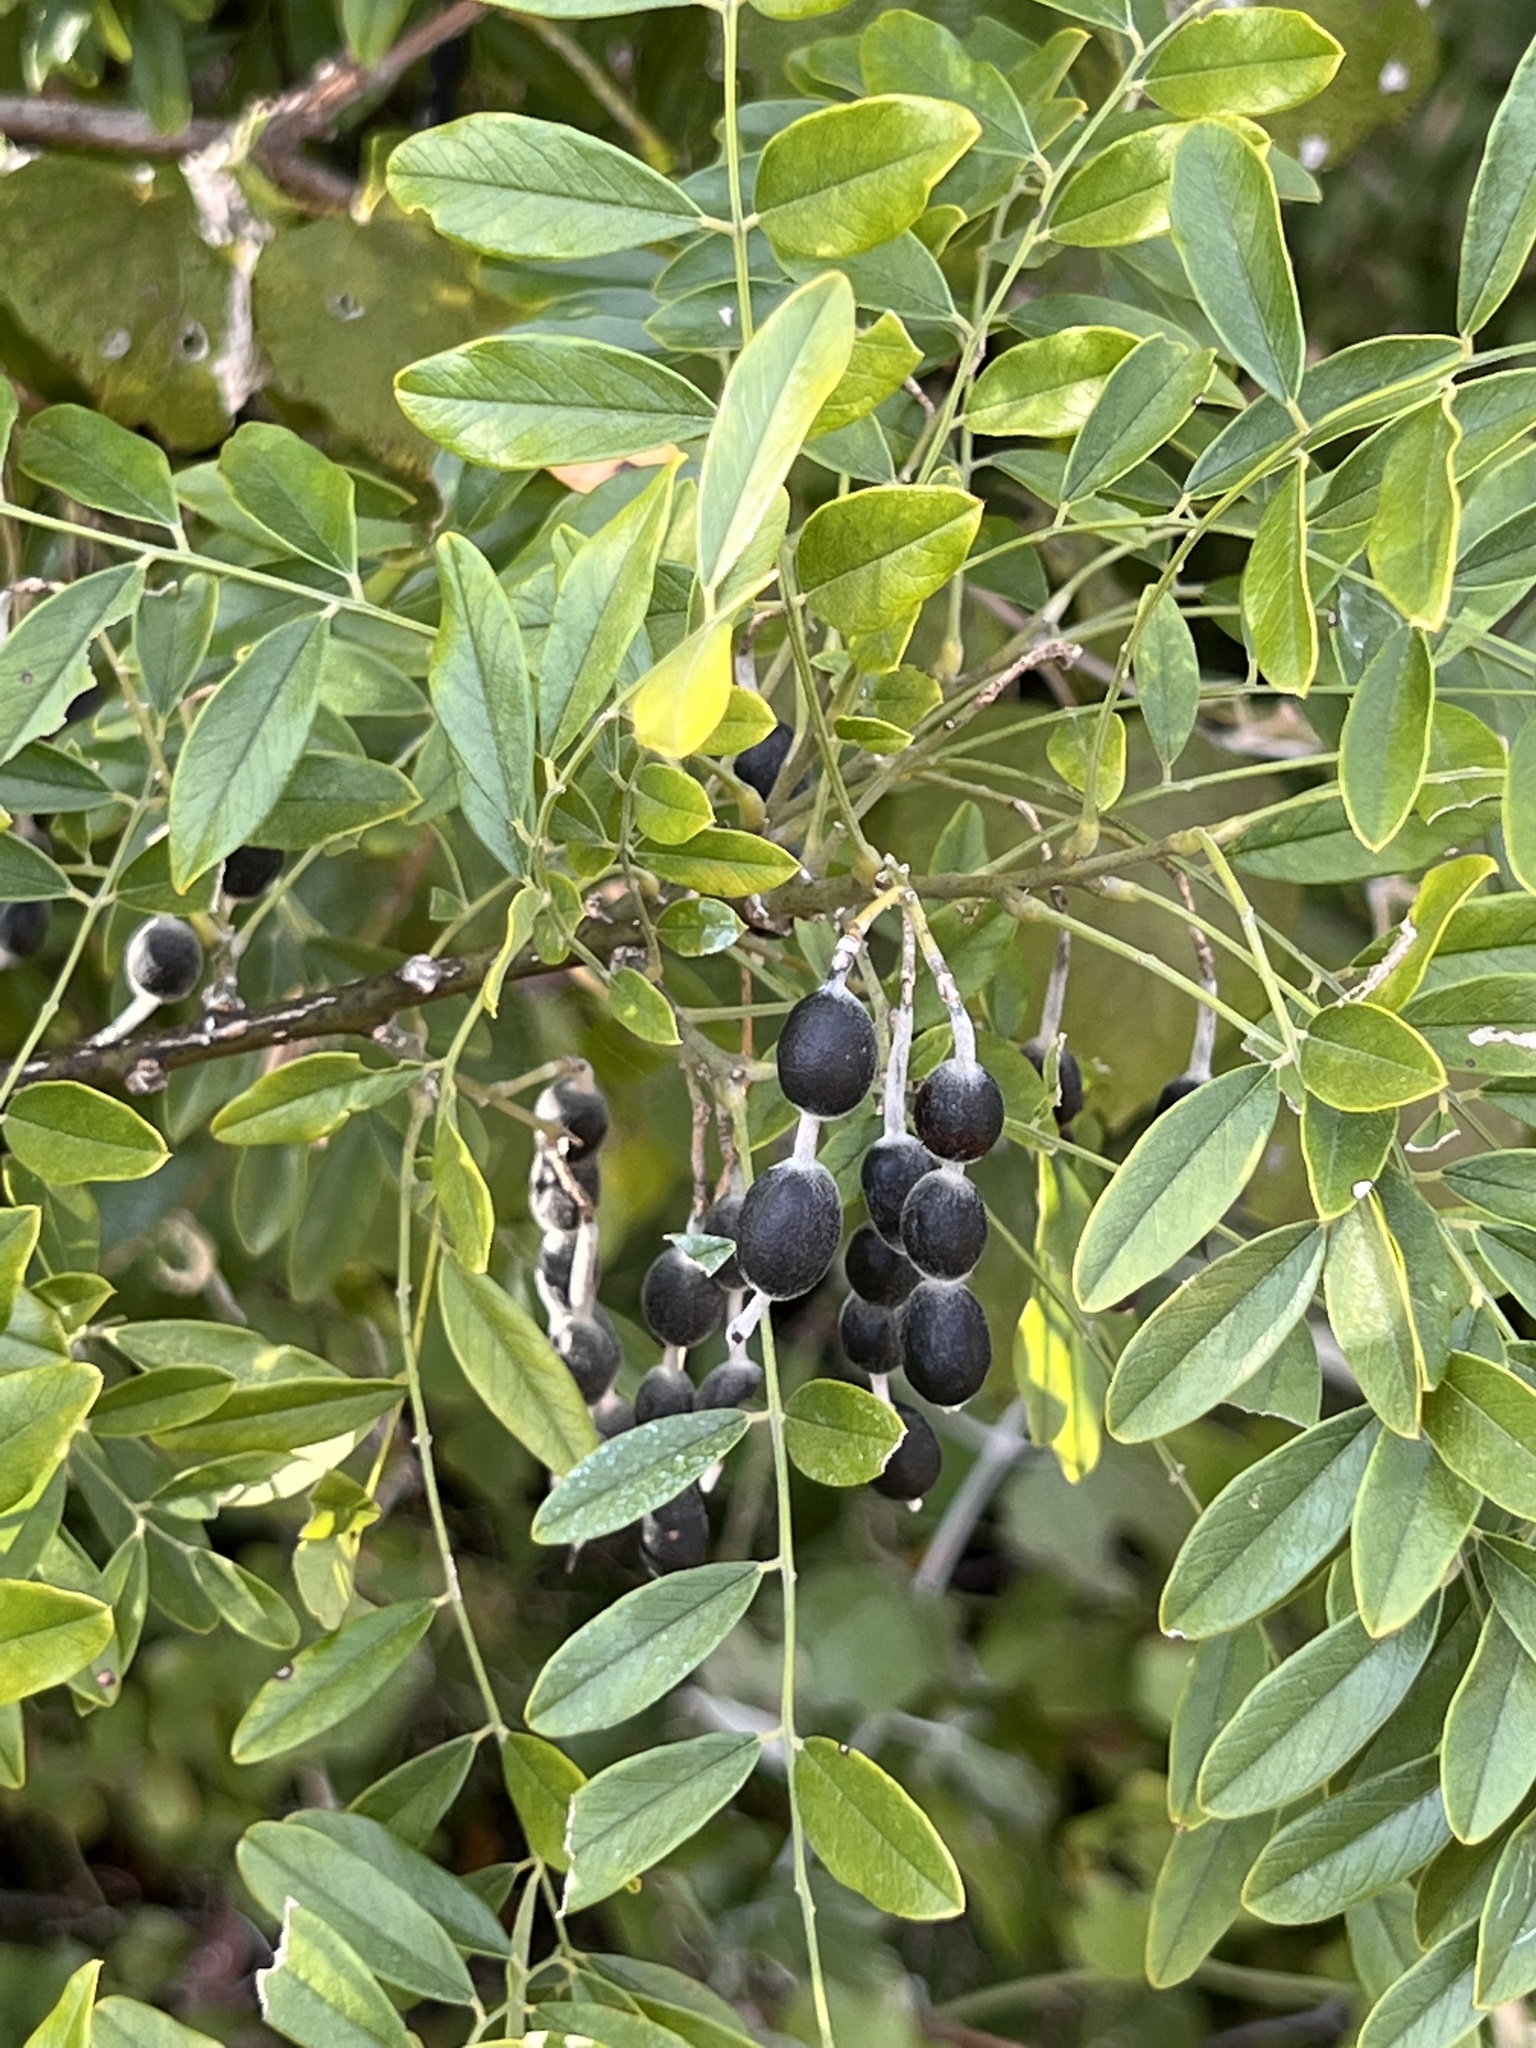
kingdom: Plantae
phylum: Tracheophyta
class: Magnoliopsida
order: Fabales
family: Fabaceae
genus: Styphnolobium
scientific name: Styphnolobium affine
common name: Texas sophora
